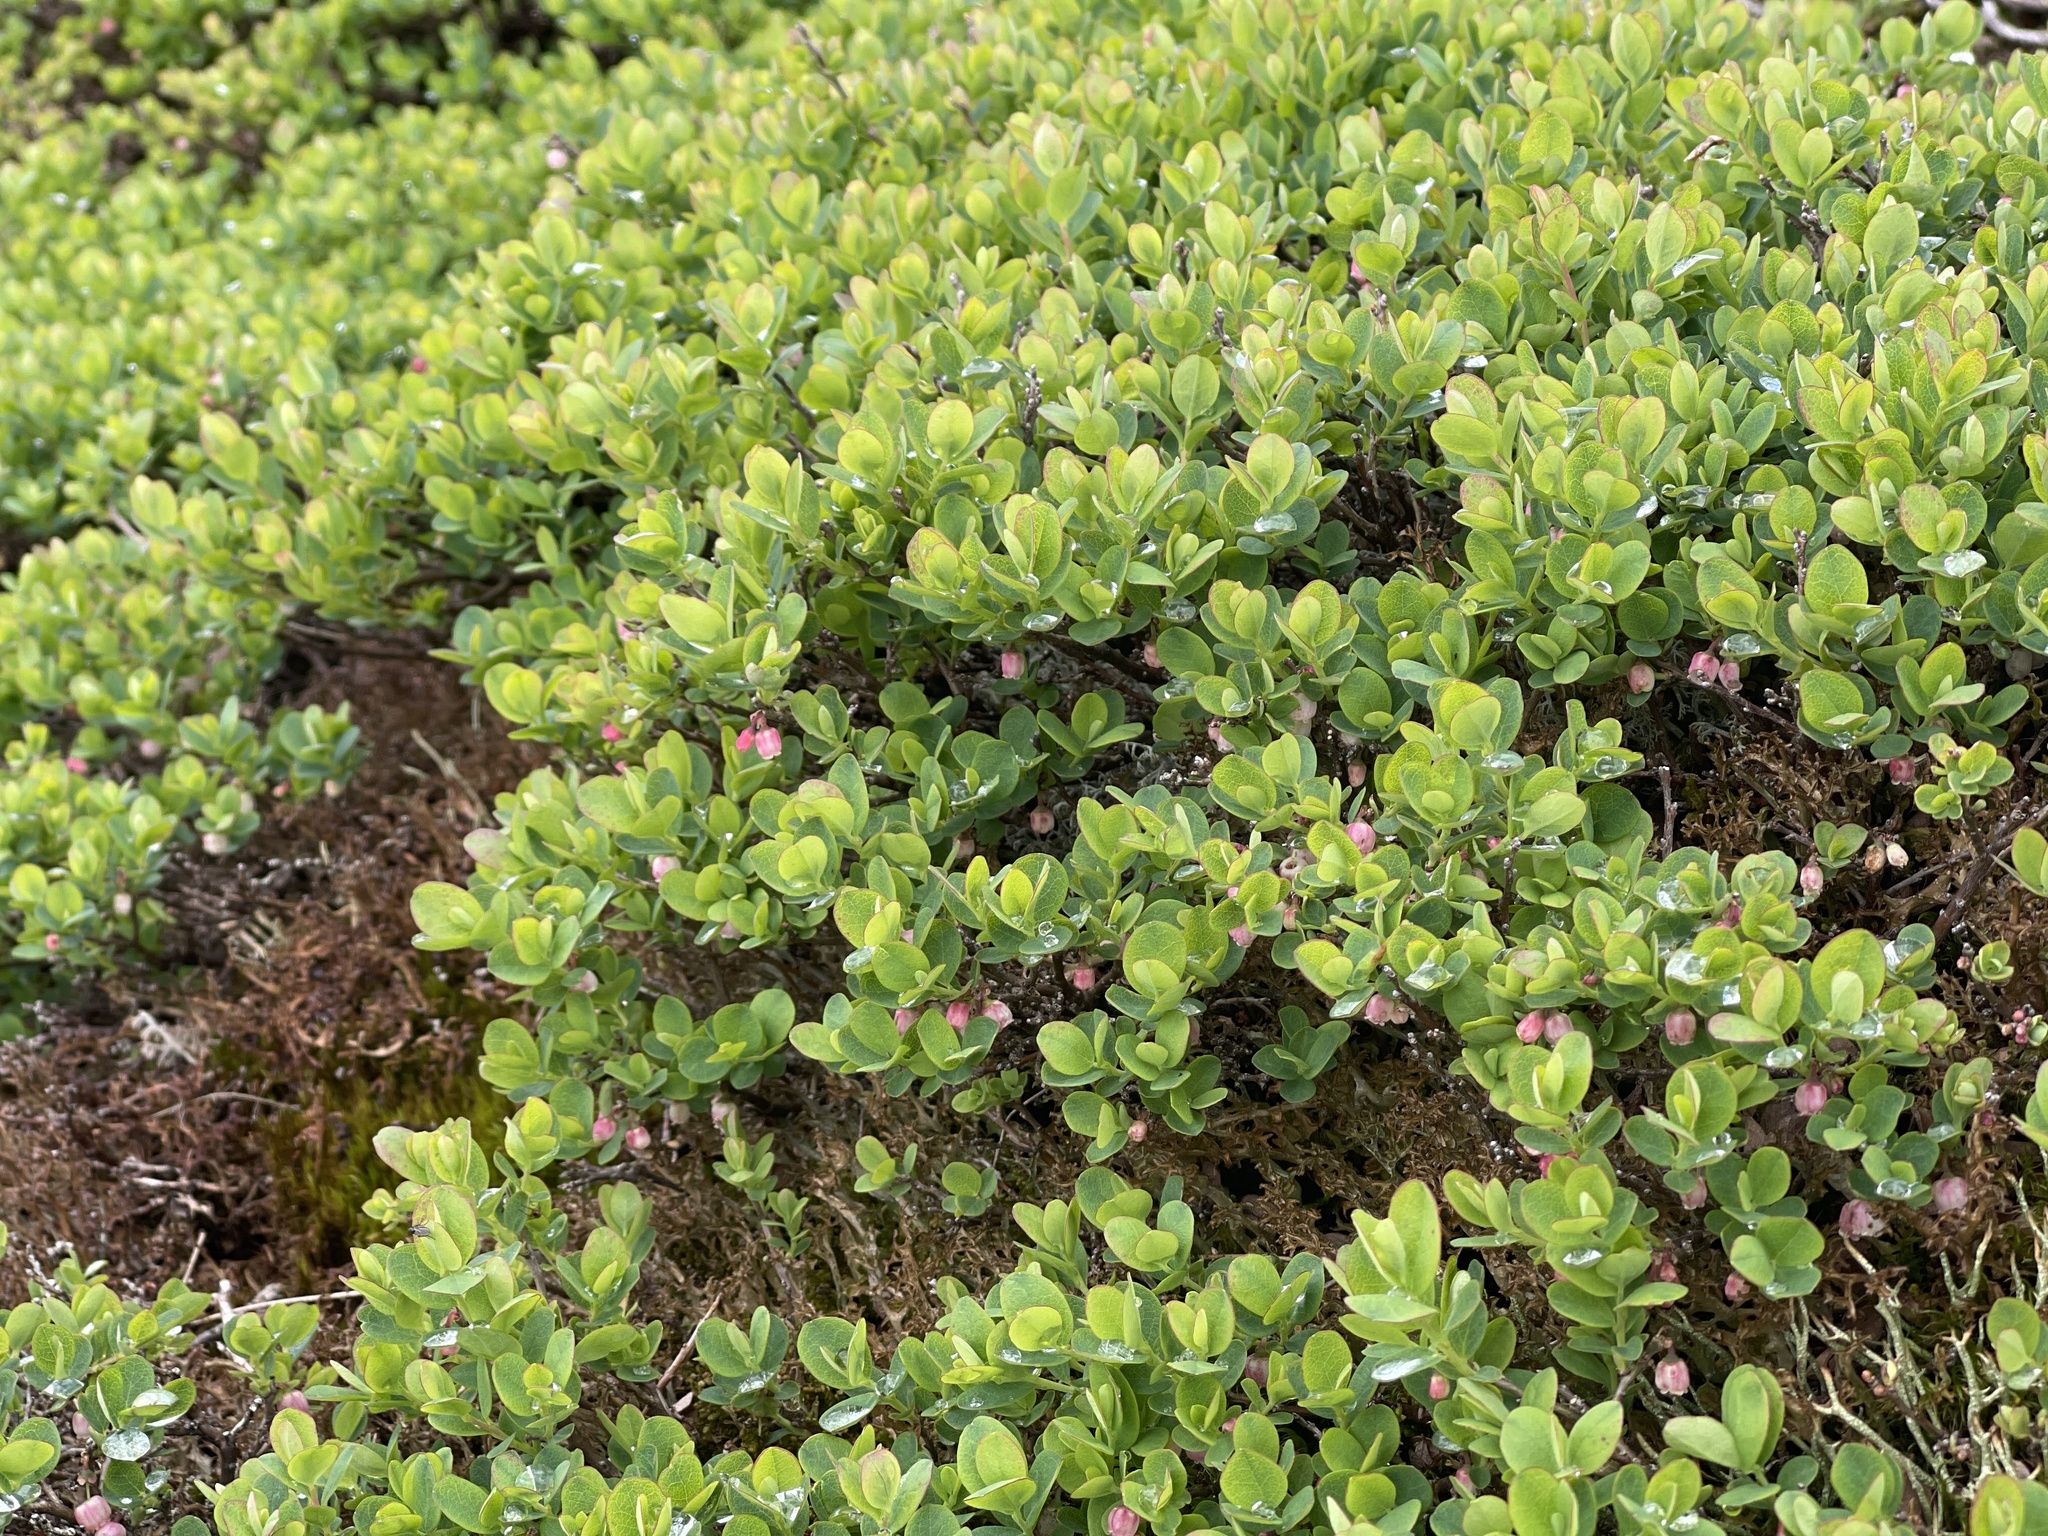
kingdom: Plantae
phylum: Tracheophyta
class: Magnoliopsida
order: Ericales
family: Ericaceae
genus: Vaccinium
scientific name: Vaccinium uliginosum
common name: Bog bilberry
